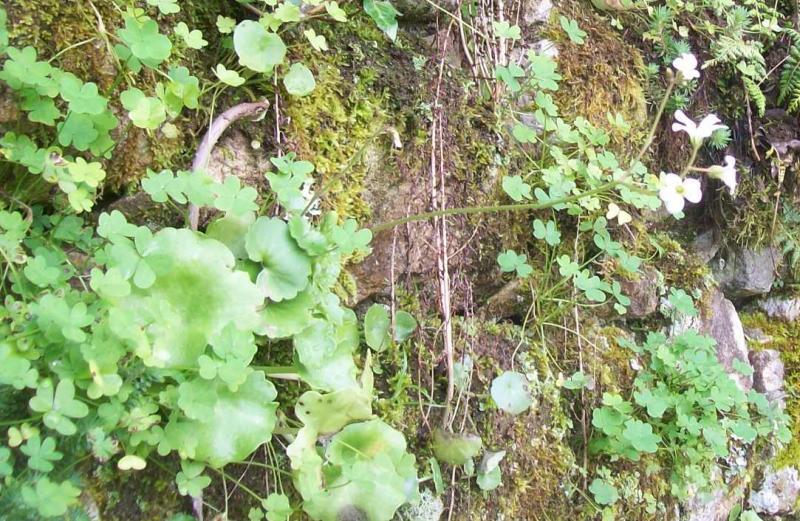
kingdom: Plantae
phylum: Tracheophyta
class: Magnoliopsida
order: Saxifragales
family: Saxifragaceae
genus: Saxifraga
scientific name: Saxifraga granulata
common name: Meadow saxifrage
